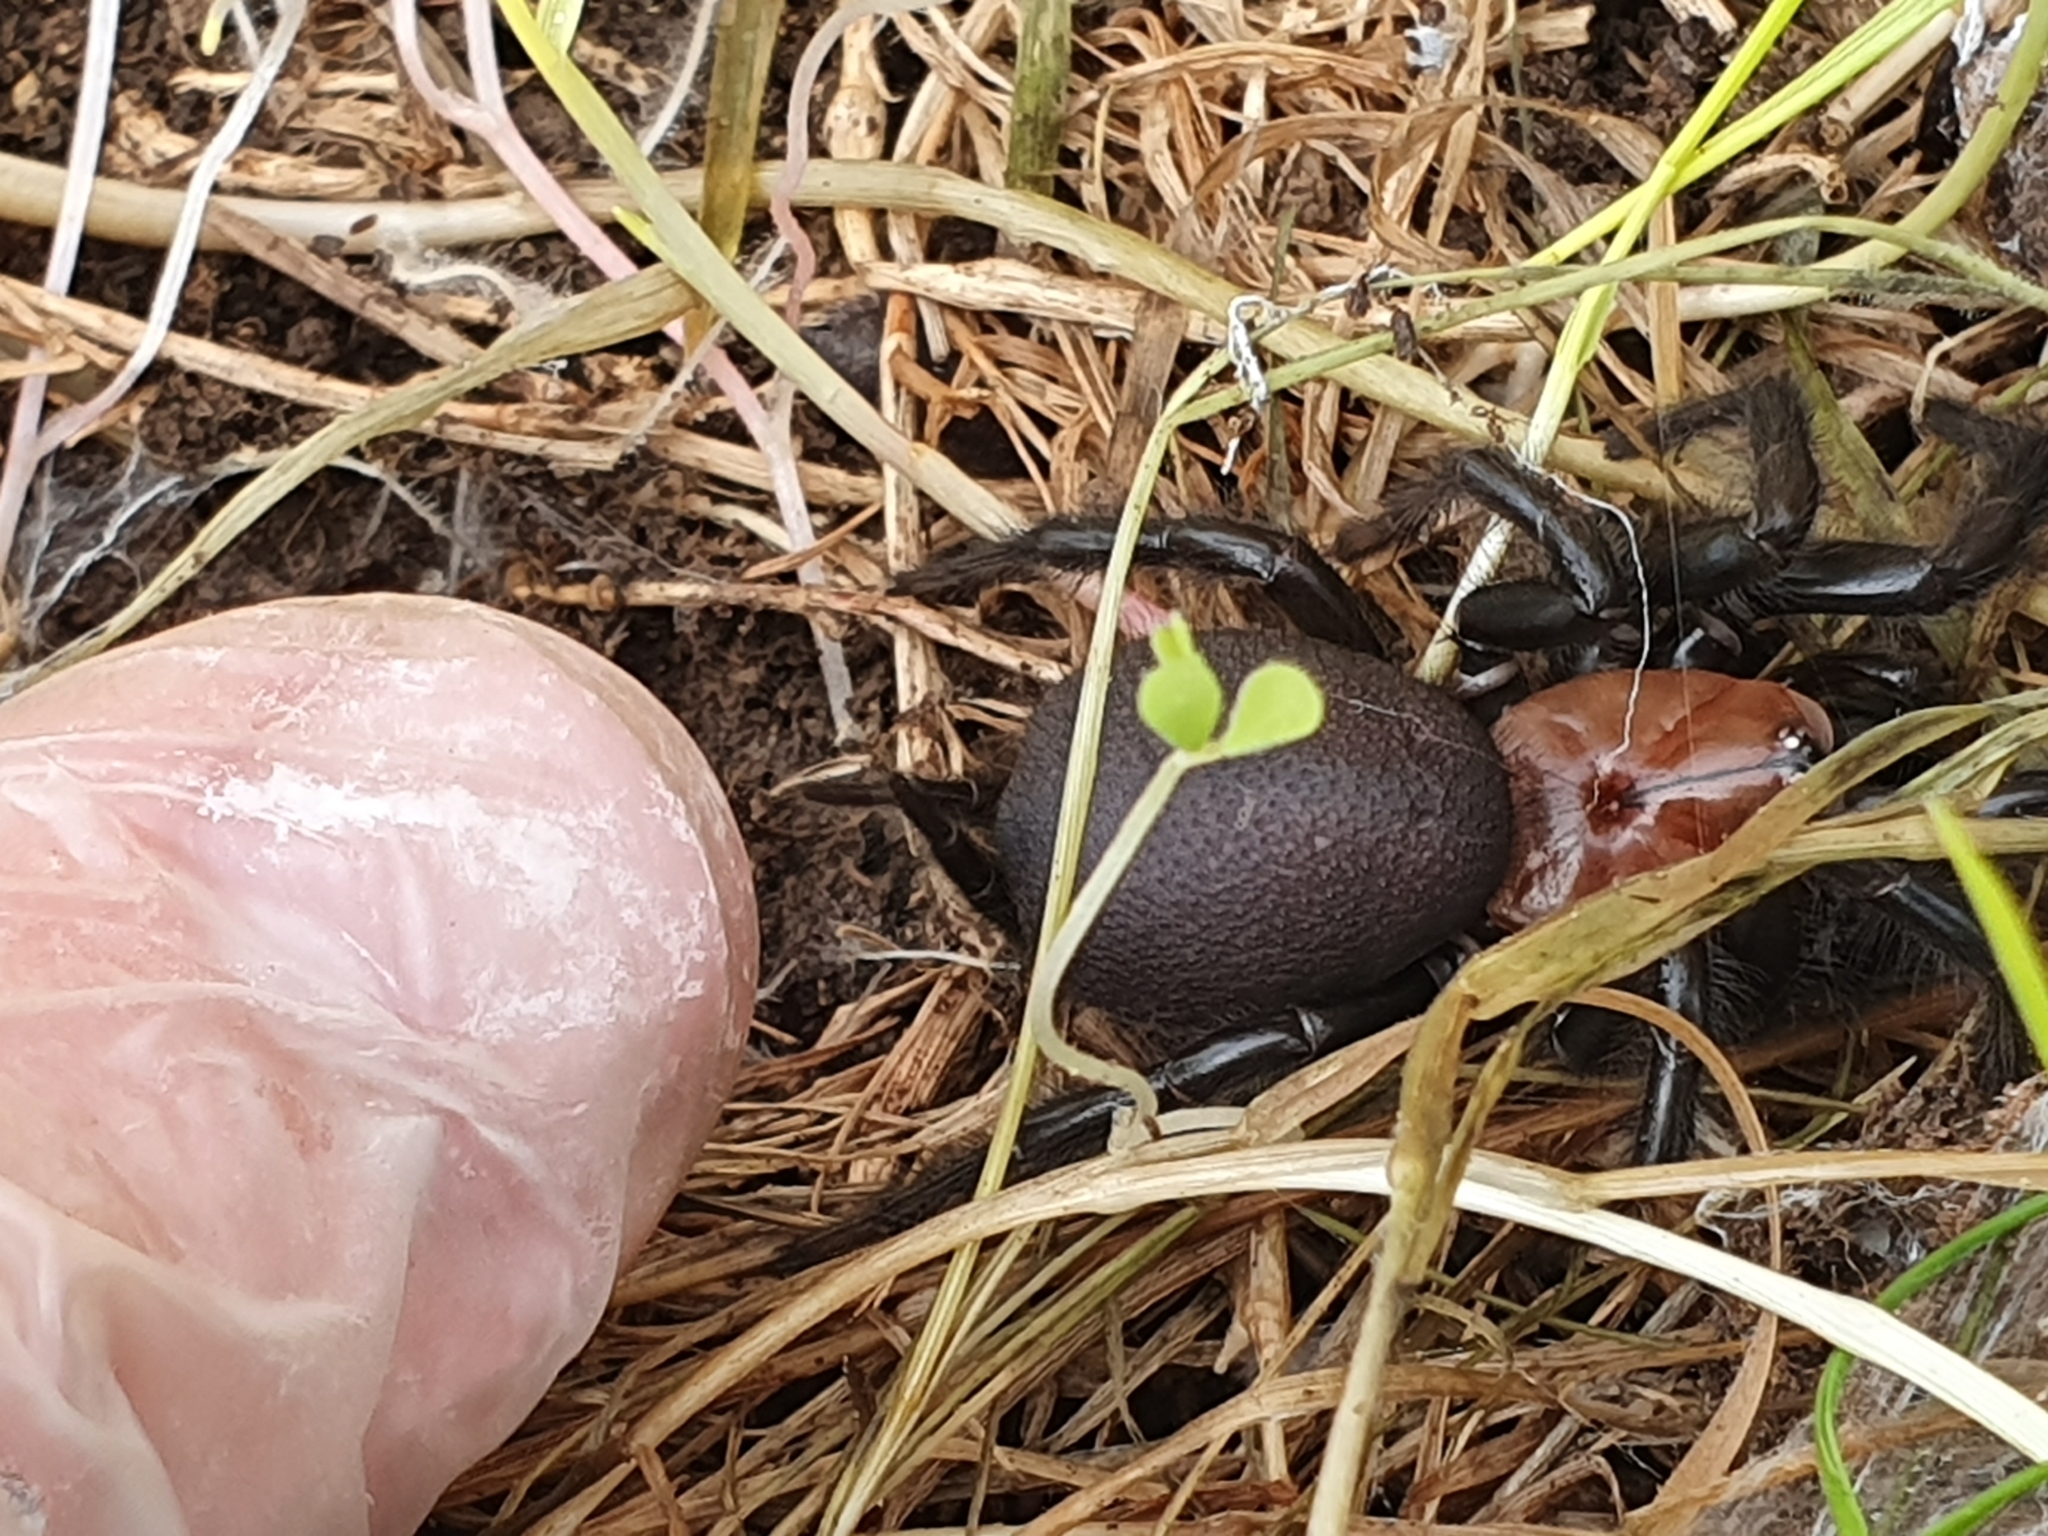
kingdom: Animalia
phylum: Arthropoda
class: Arachnida
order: Araneae
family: Porrhothelidae
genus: Porrhothele
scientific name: Porrhothele antipodiana
